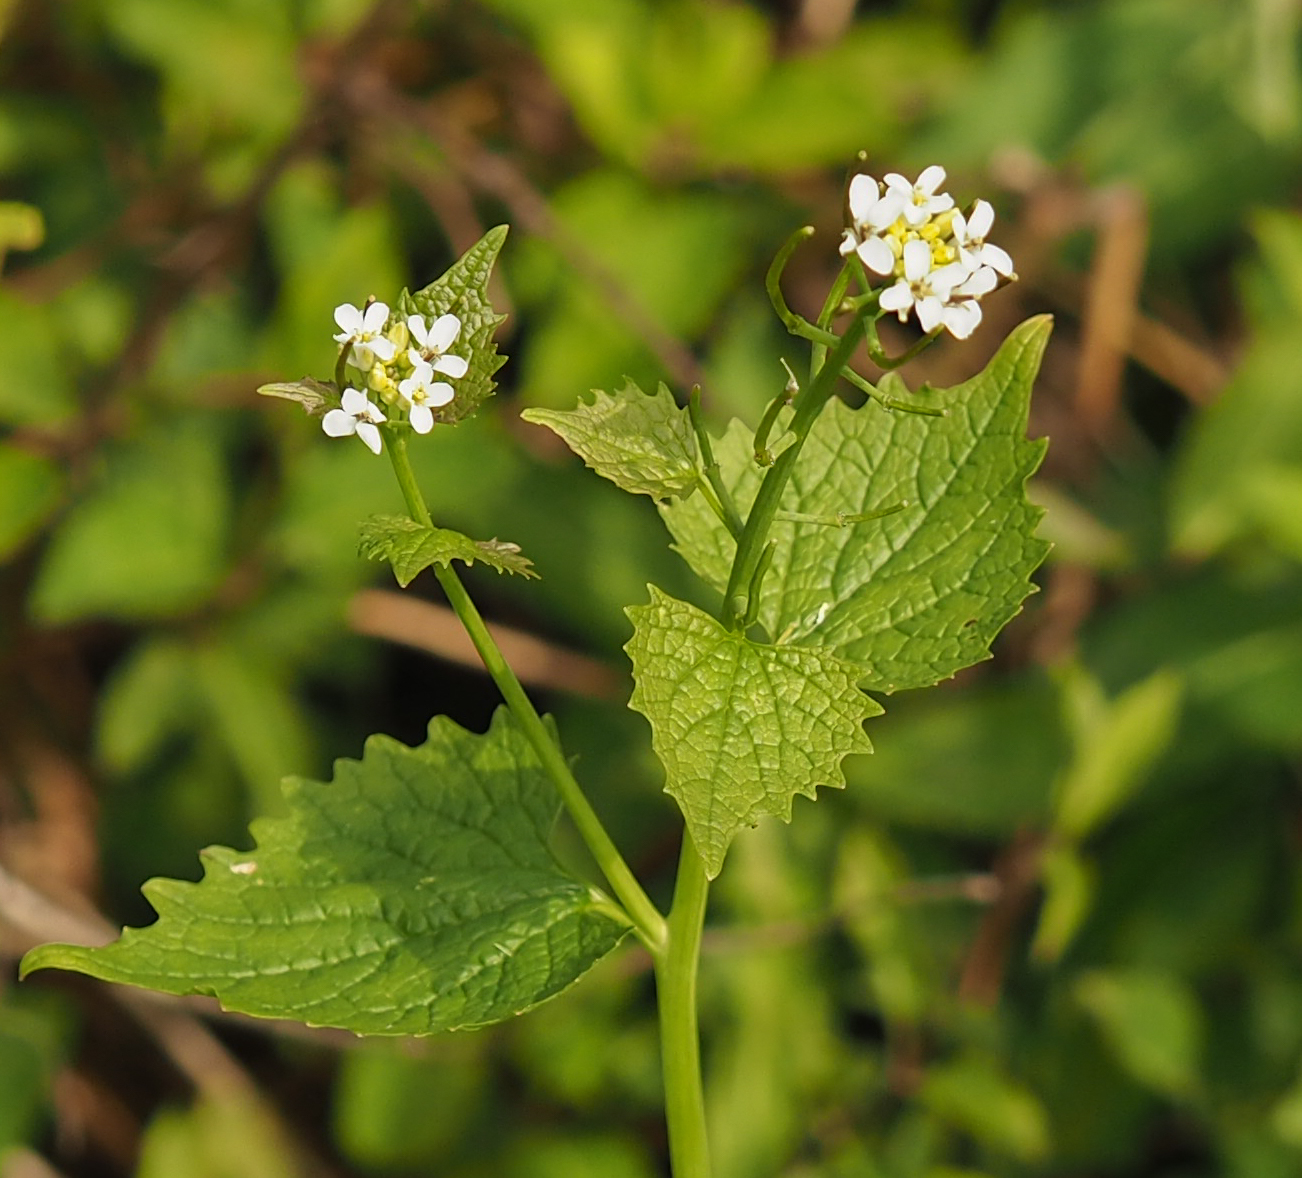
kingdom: Plantae
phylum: Tracheophyta
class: Magnoliopsida
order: Brassicales
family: Brassicaceae
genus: Alliaria
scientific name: Alliaria petiolata
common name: Garlic mustard
